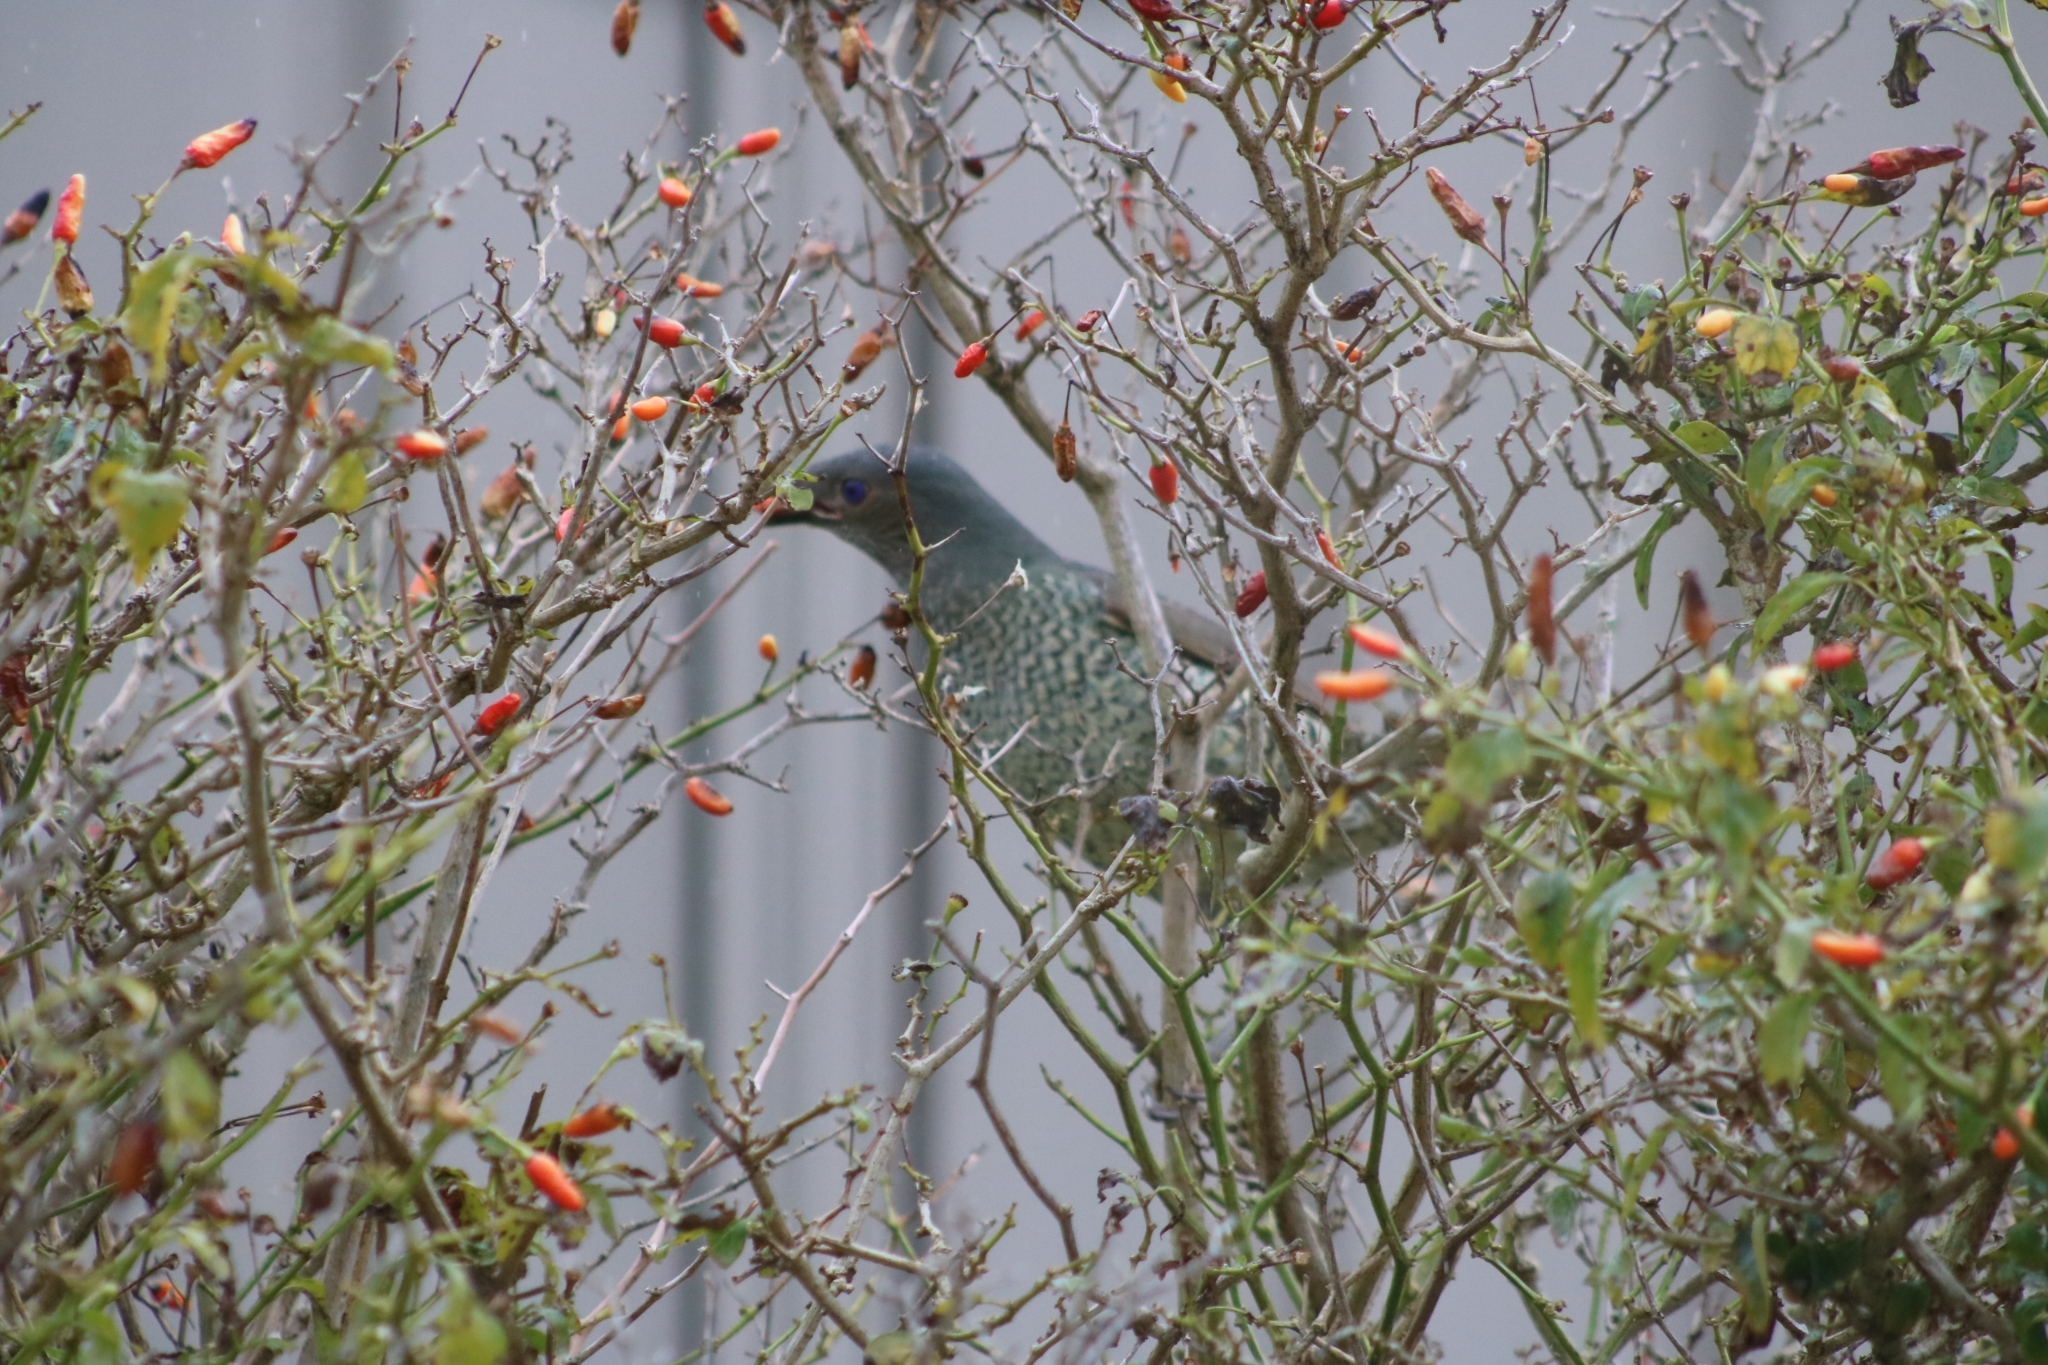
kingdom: Animalia
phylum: Chordata
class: Aves
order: Passeriformes
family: Ptilonorhynchidae
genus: Ptilonorhynchus
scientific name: Ptilonorhynchus violaceus
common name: Satin bowerbird
